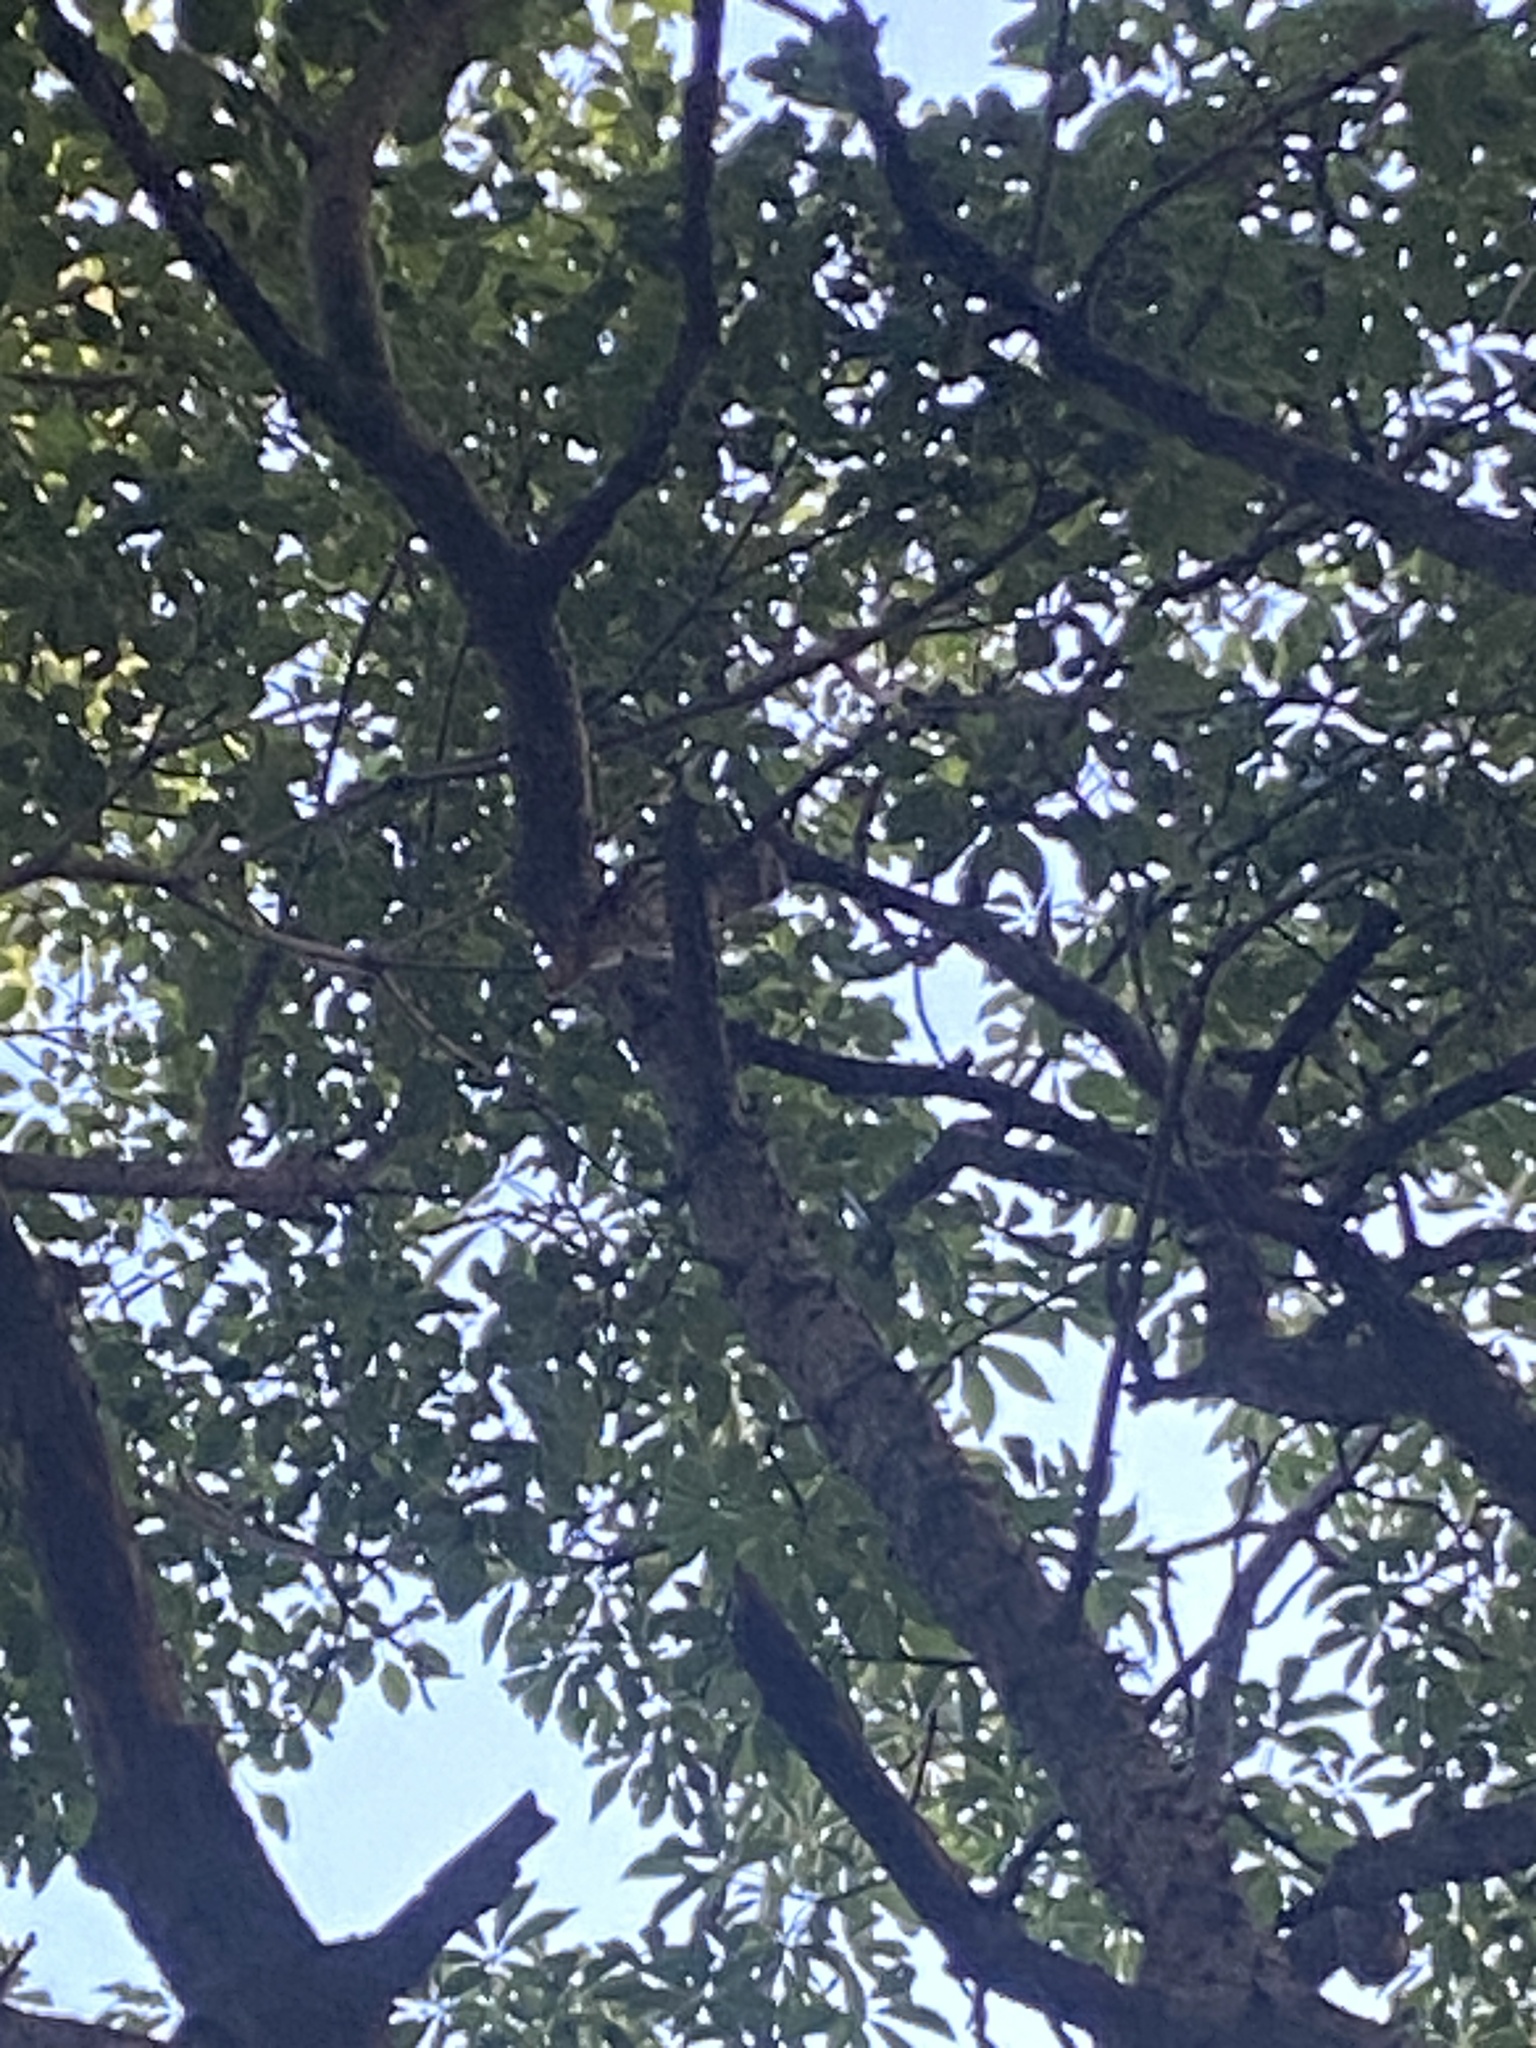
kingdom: Animalia
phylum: Chordata
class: Aves
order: Strigiformes
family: Strigidae
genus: Glaucidium
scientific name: Glaucidium brasilianum
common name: Ferruginous pygmy-owl
